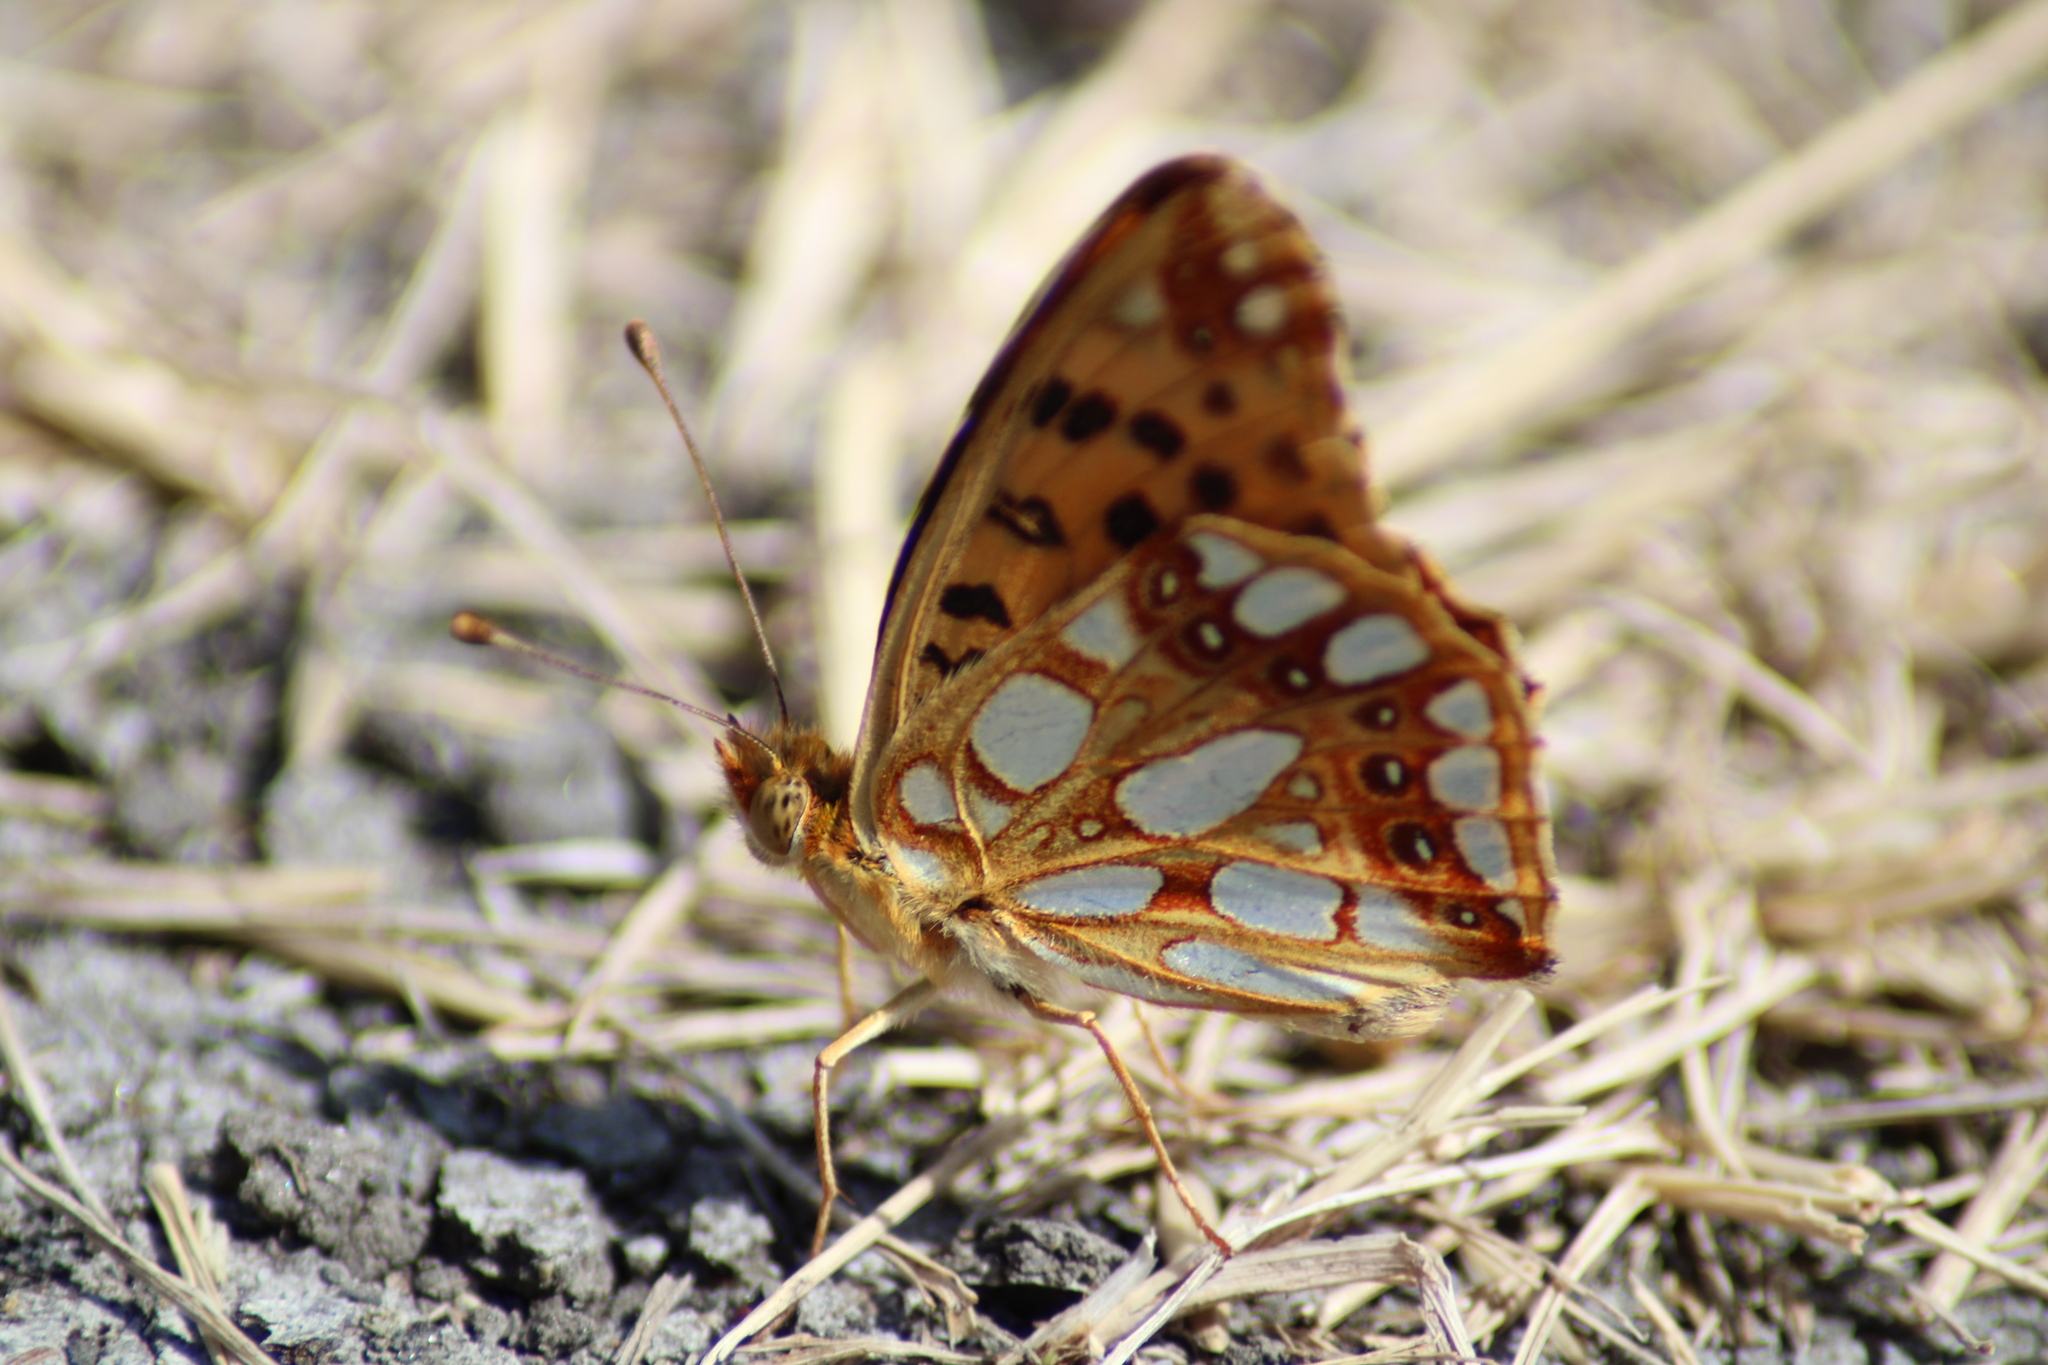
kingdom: Animalia
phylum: Arthropoda
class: Insecta
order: Lepidoptera
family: Nymphalidae
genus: Issoria
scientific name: Issoria lathonia
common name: Queen of spain fritillary
